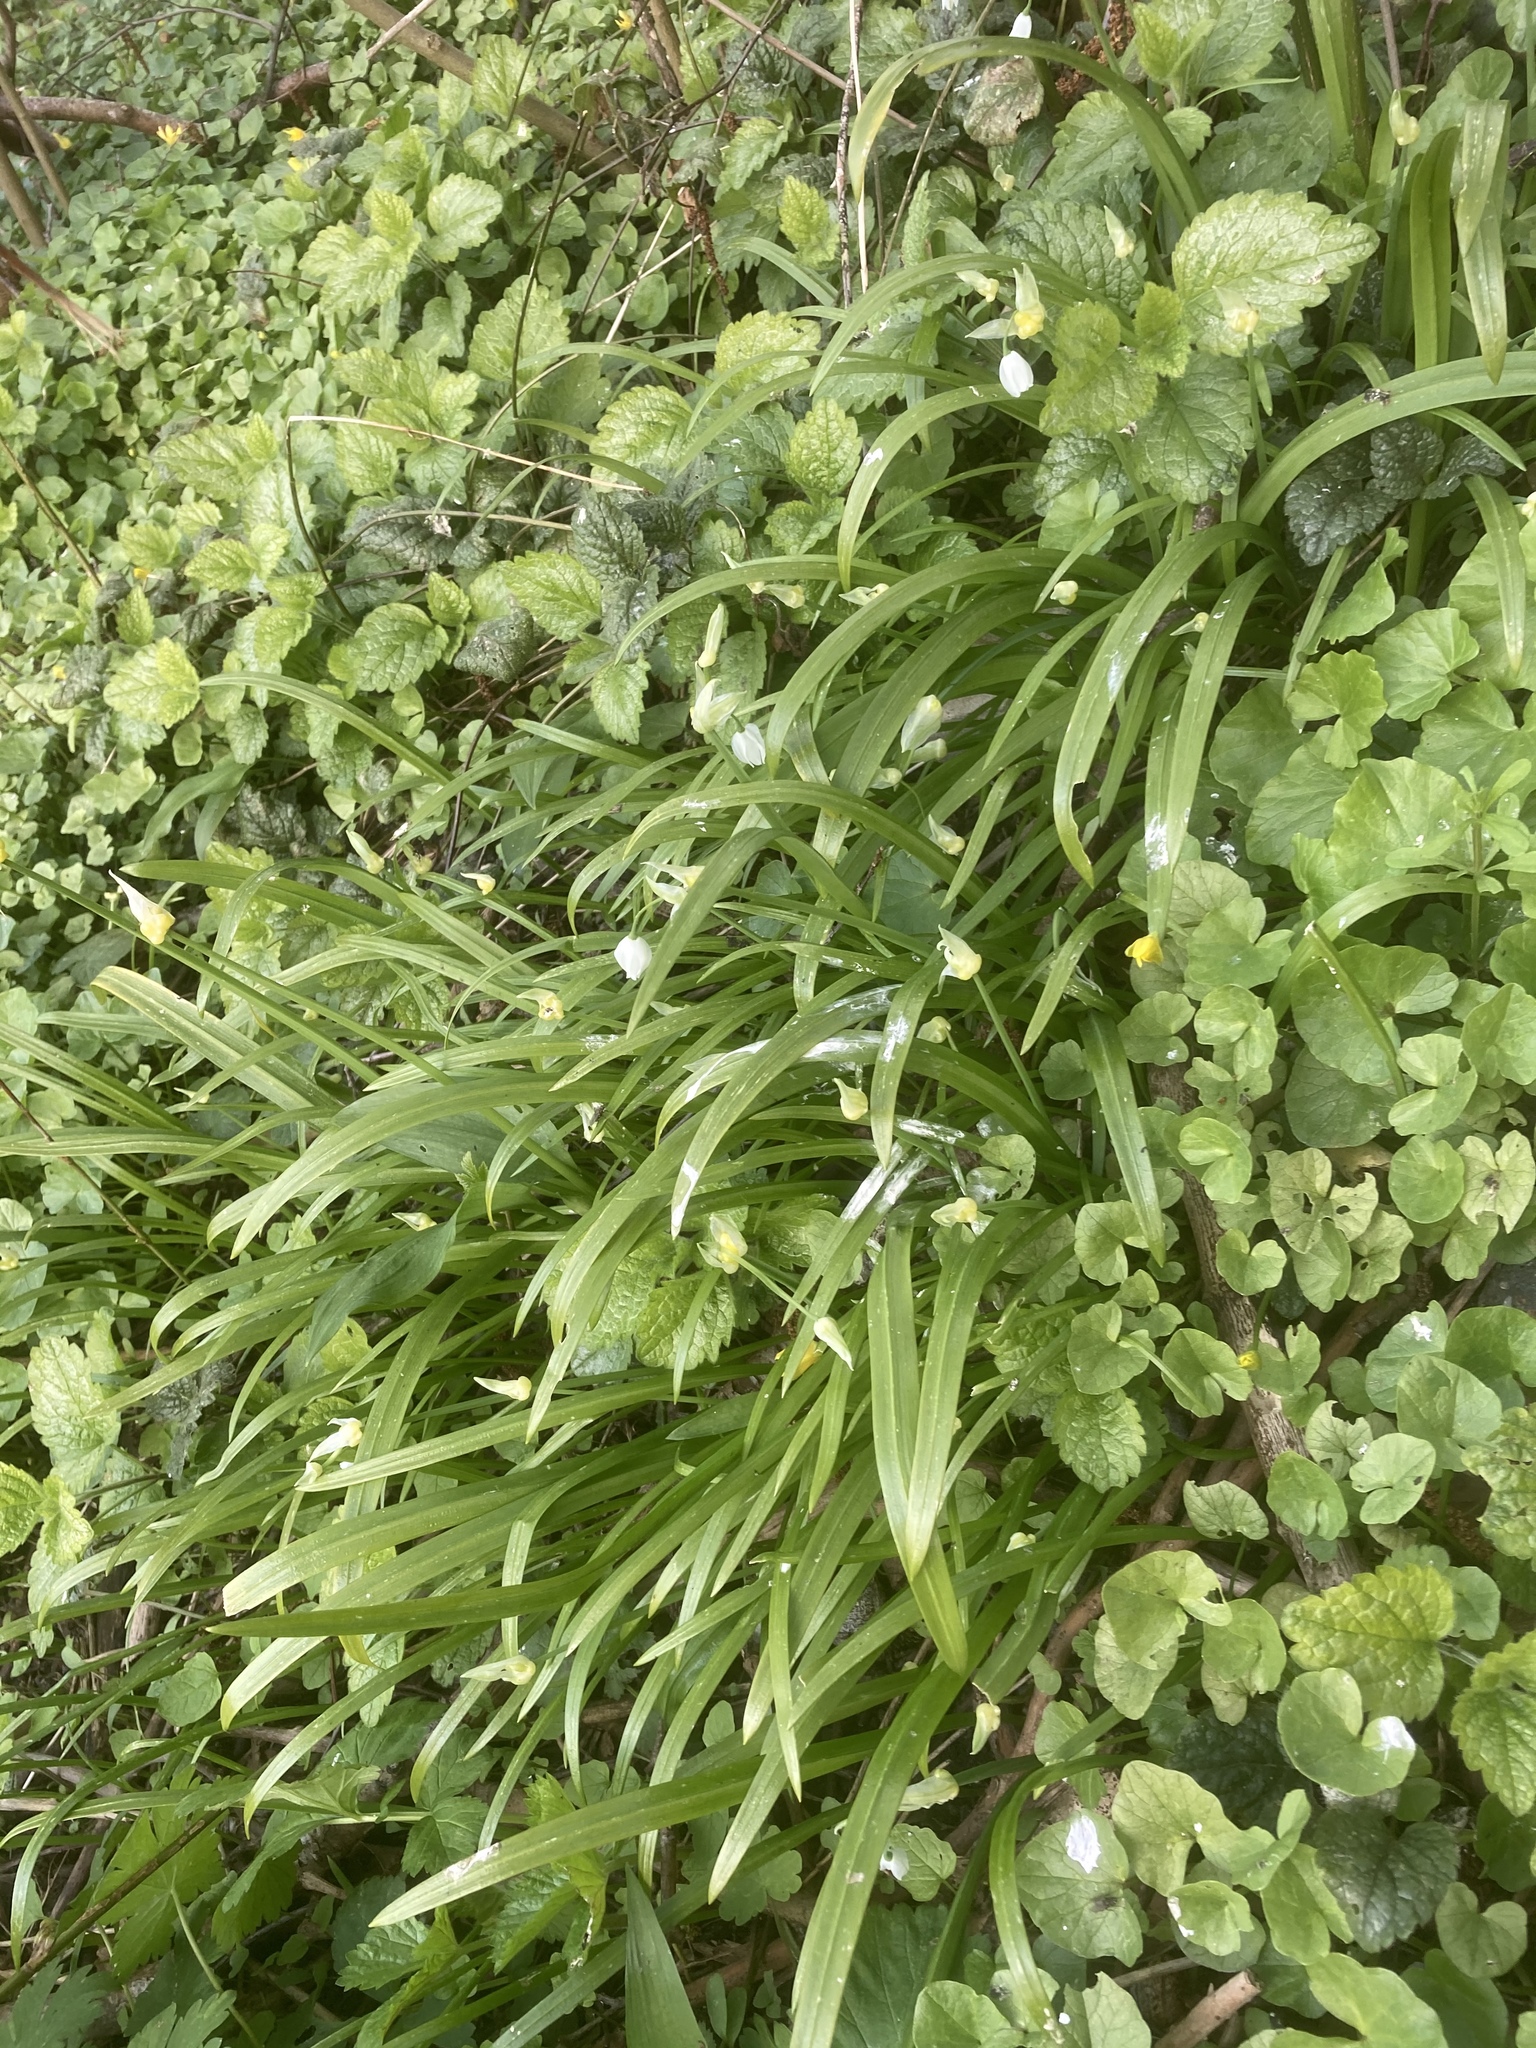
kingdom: Plantae
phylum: Tracheophyta
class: Liliopsida
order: Asparagales
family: Amaryllidaceae
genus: Allium
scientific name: Allium paradoxum
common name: Few-flowered garlic
